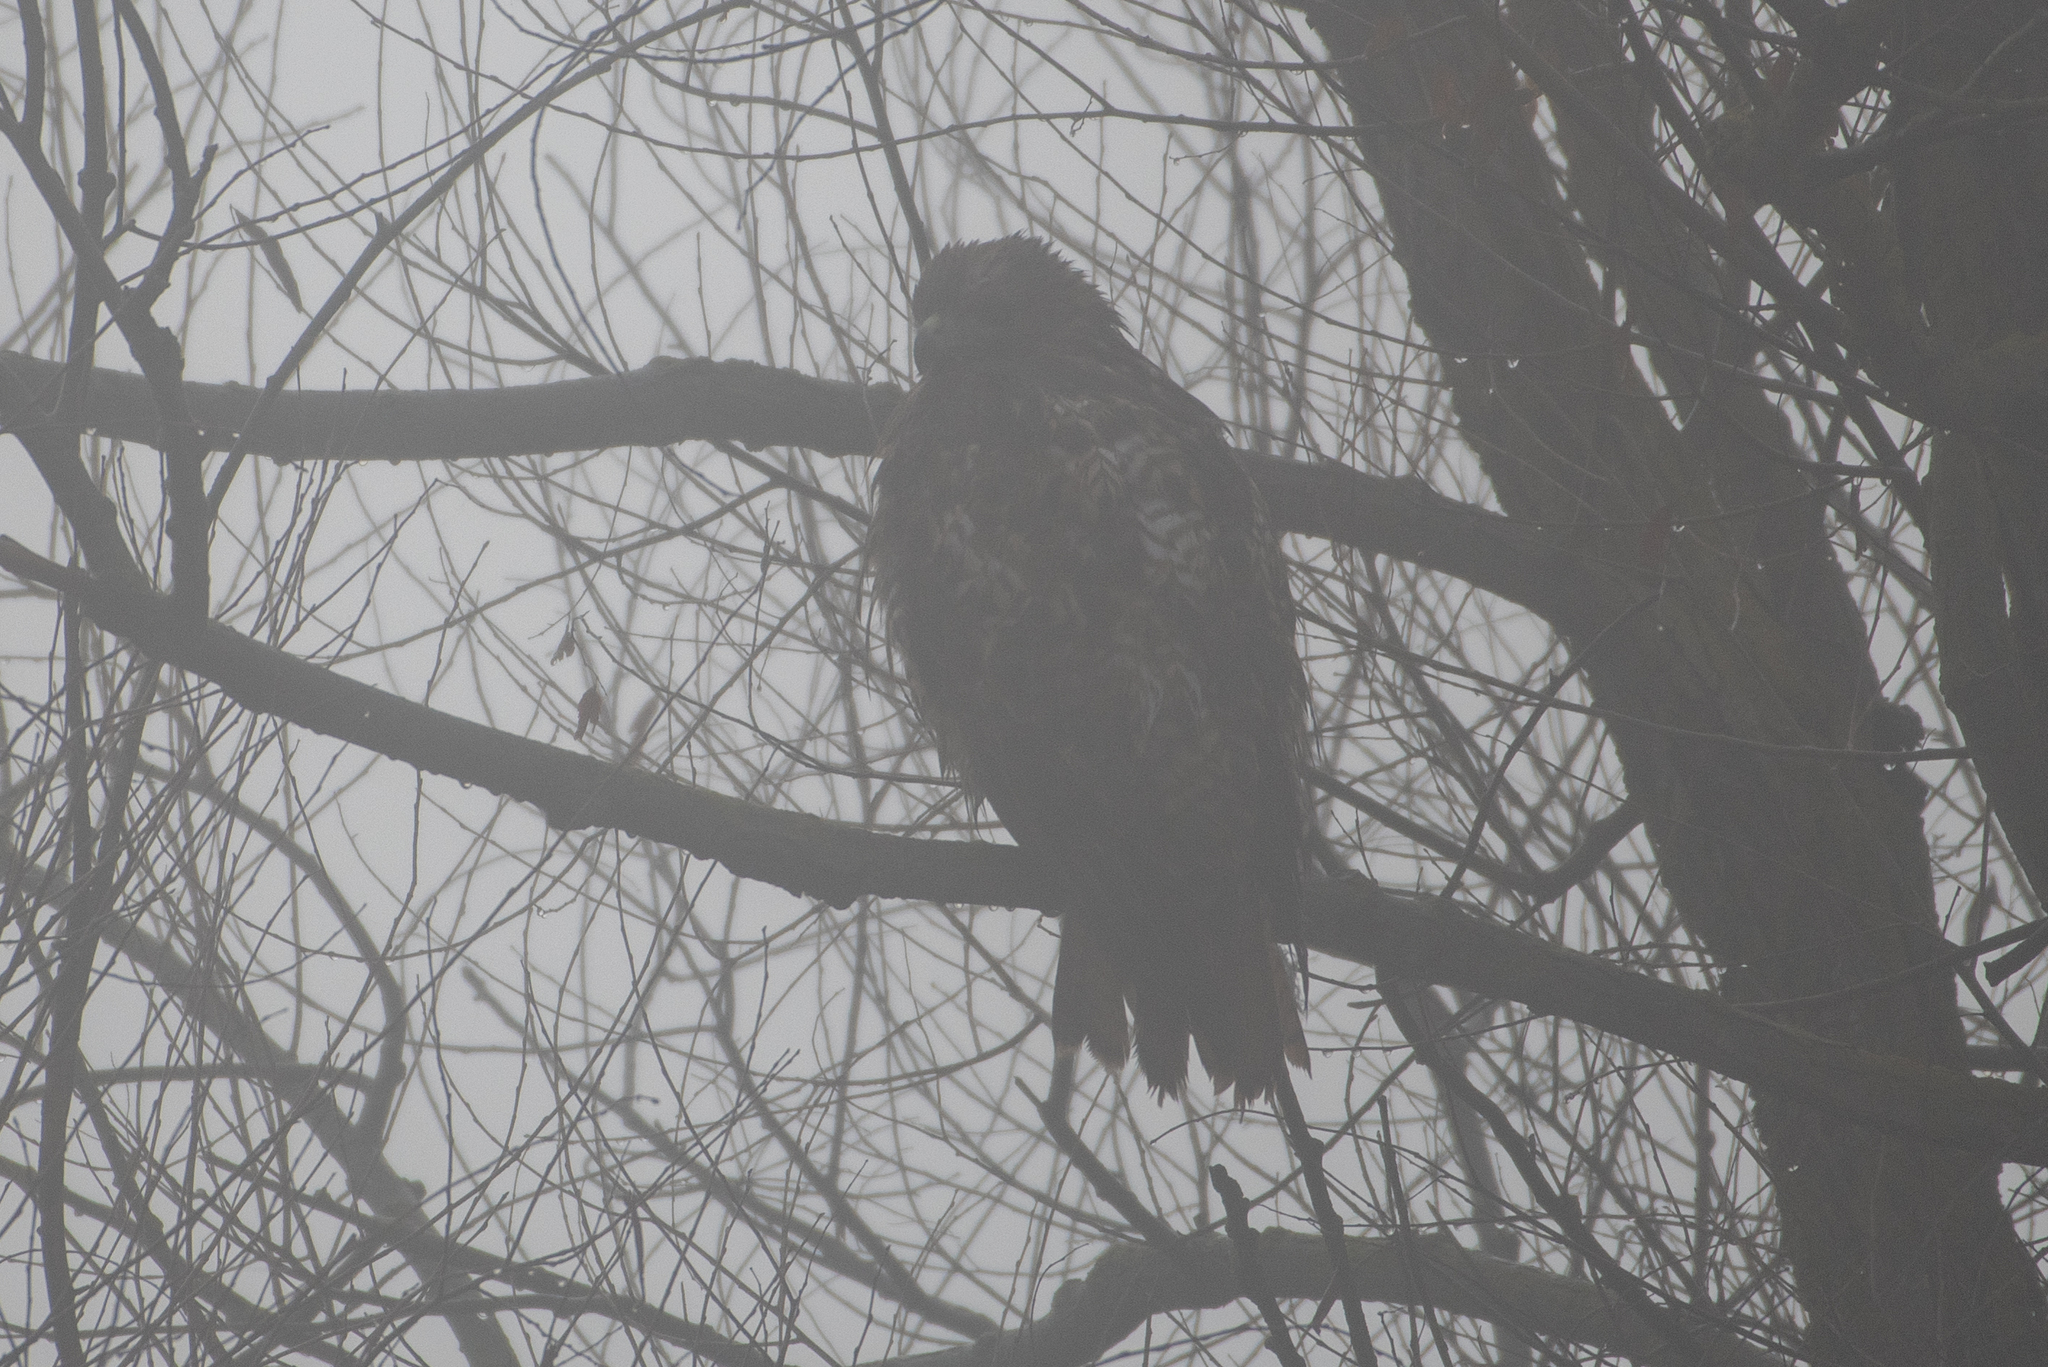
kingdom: Animalia
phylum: Chordata
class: Aves
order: Accipitriformes
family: Accipitridae
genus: Buteo
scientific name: Buteo jamaicensis
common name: Red-tailed hawk
